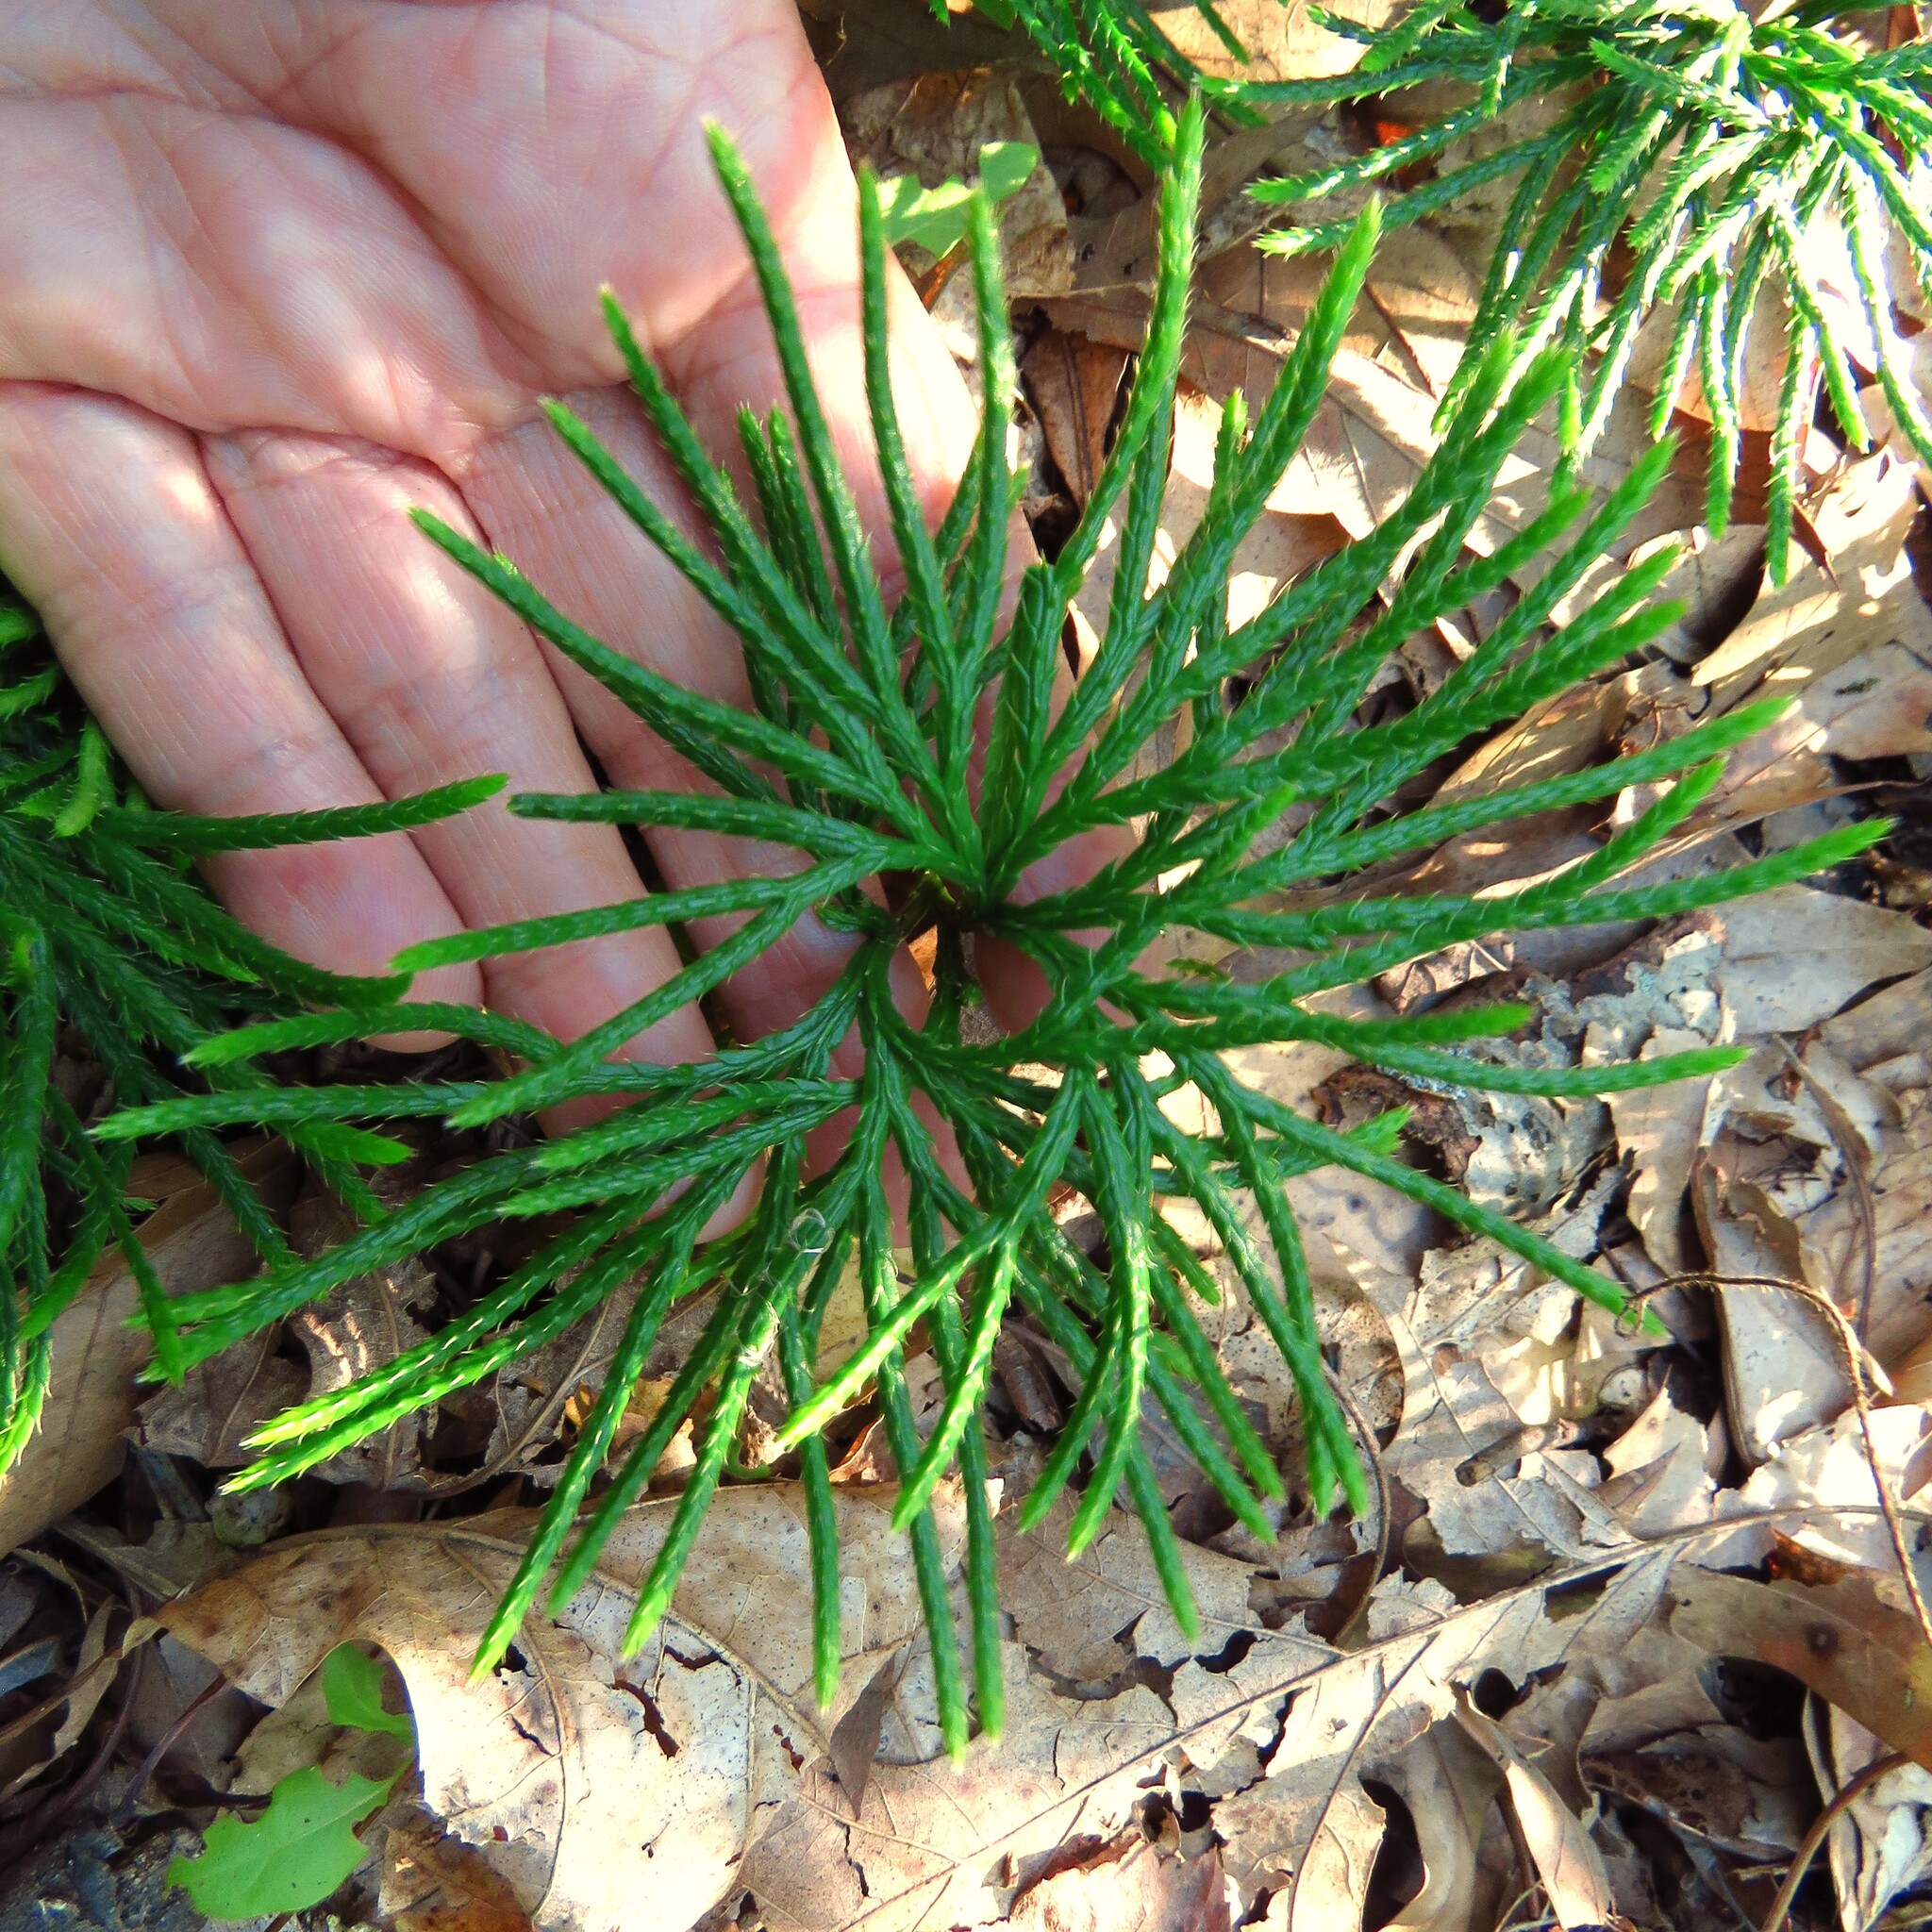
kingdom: Plantae
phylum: Tracheophyta
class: Lycopodiopsida
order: Lycopodiales
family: Lycopodiaceae
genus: Diphasiastrum
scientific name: Diphasiastrum digitatum
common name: Southern running-pine
